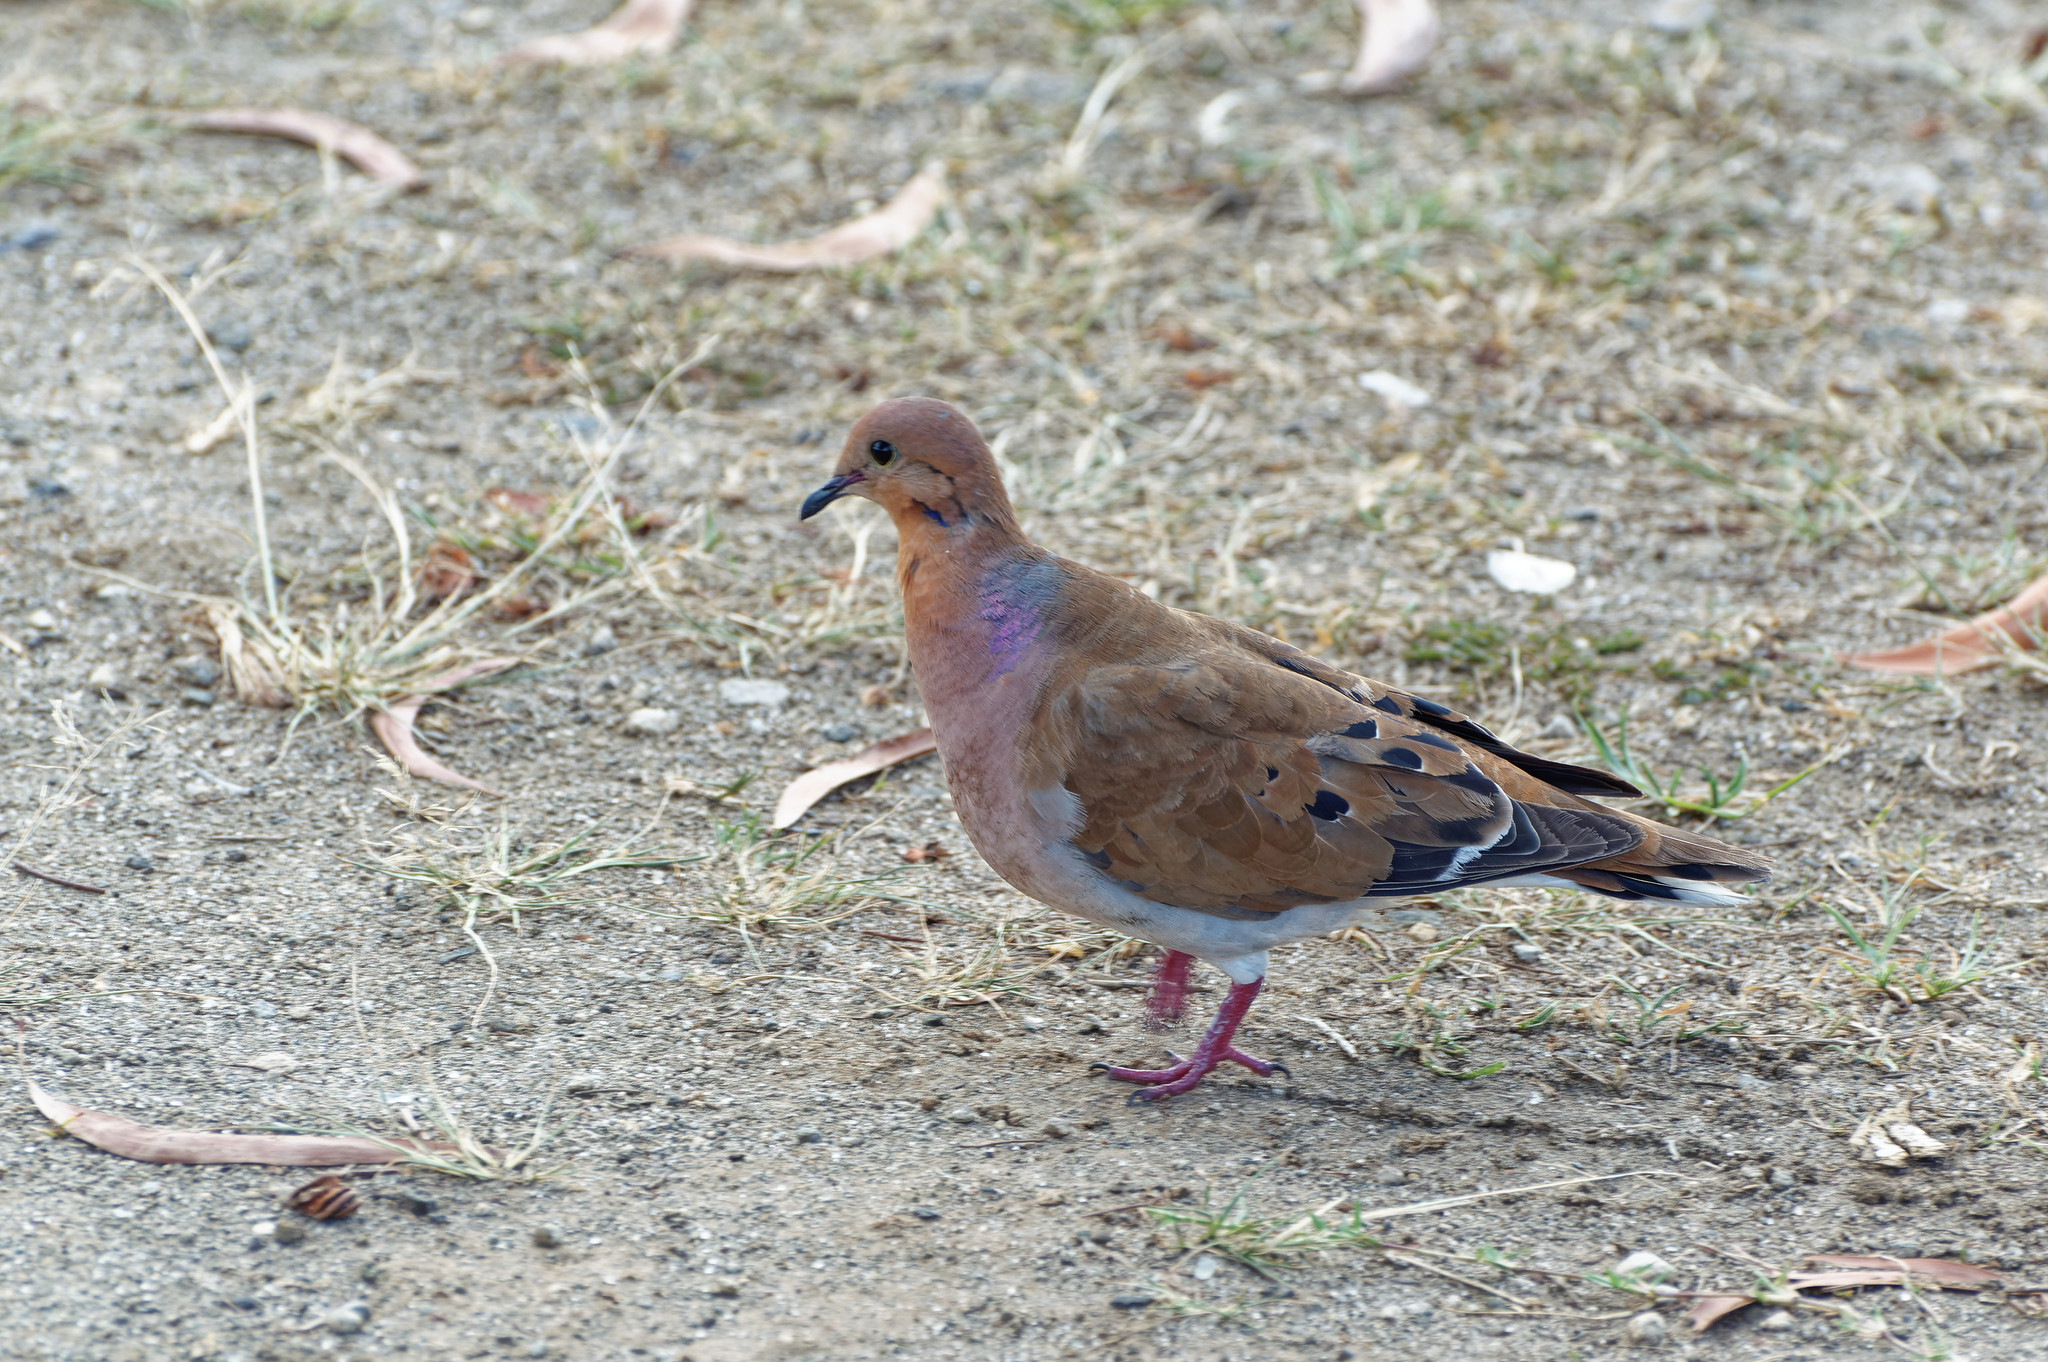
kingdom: Animalia
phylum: Chordata
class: Aves
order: Columbiformes
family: Columbidae
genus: Zenaida
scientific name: Zenaida aurita
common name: Zenaida dove
